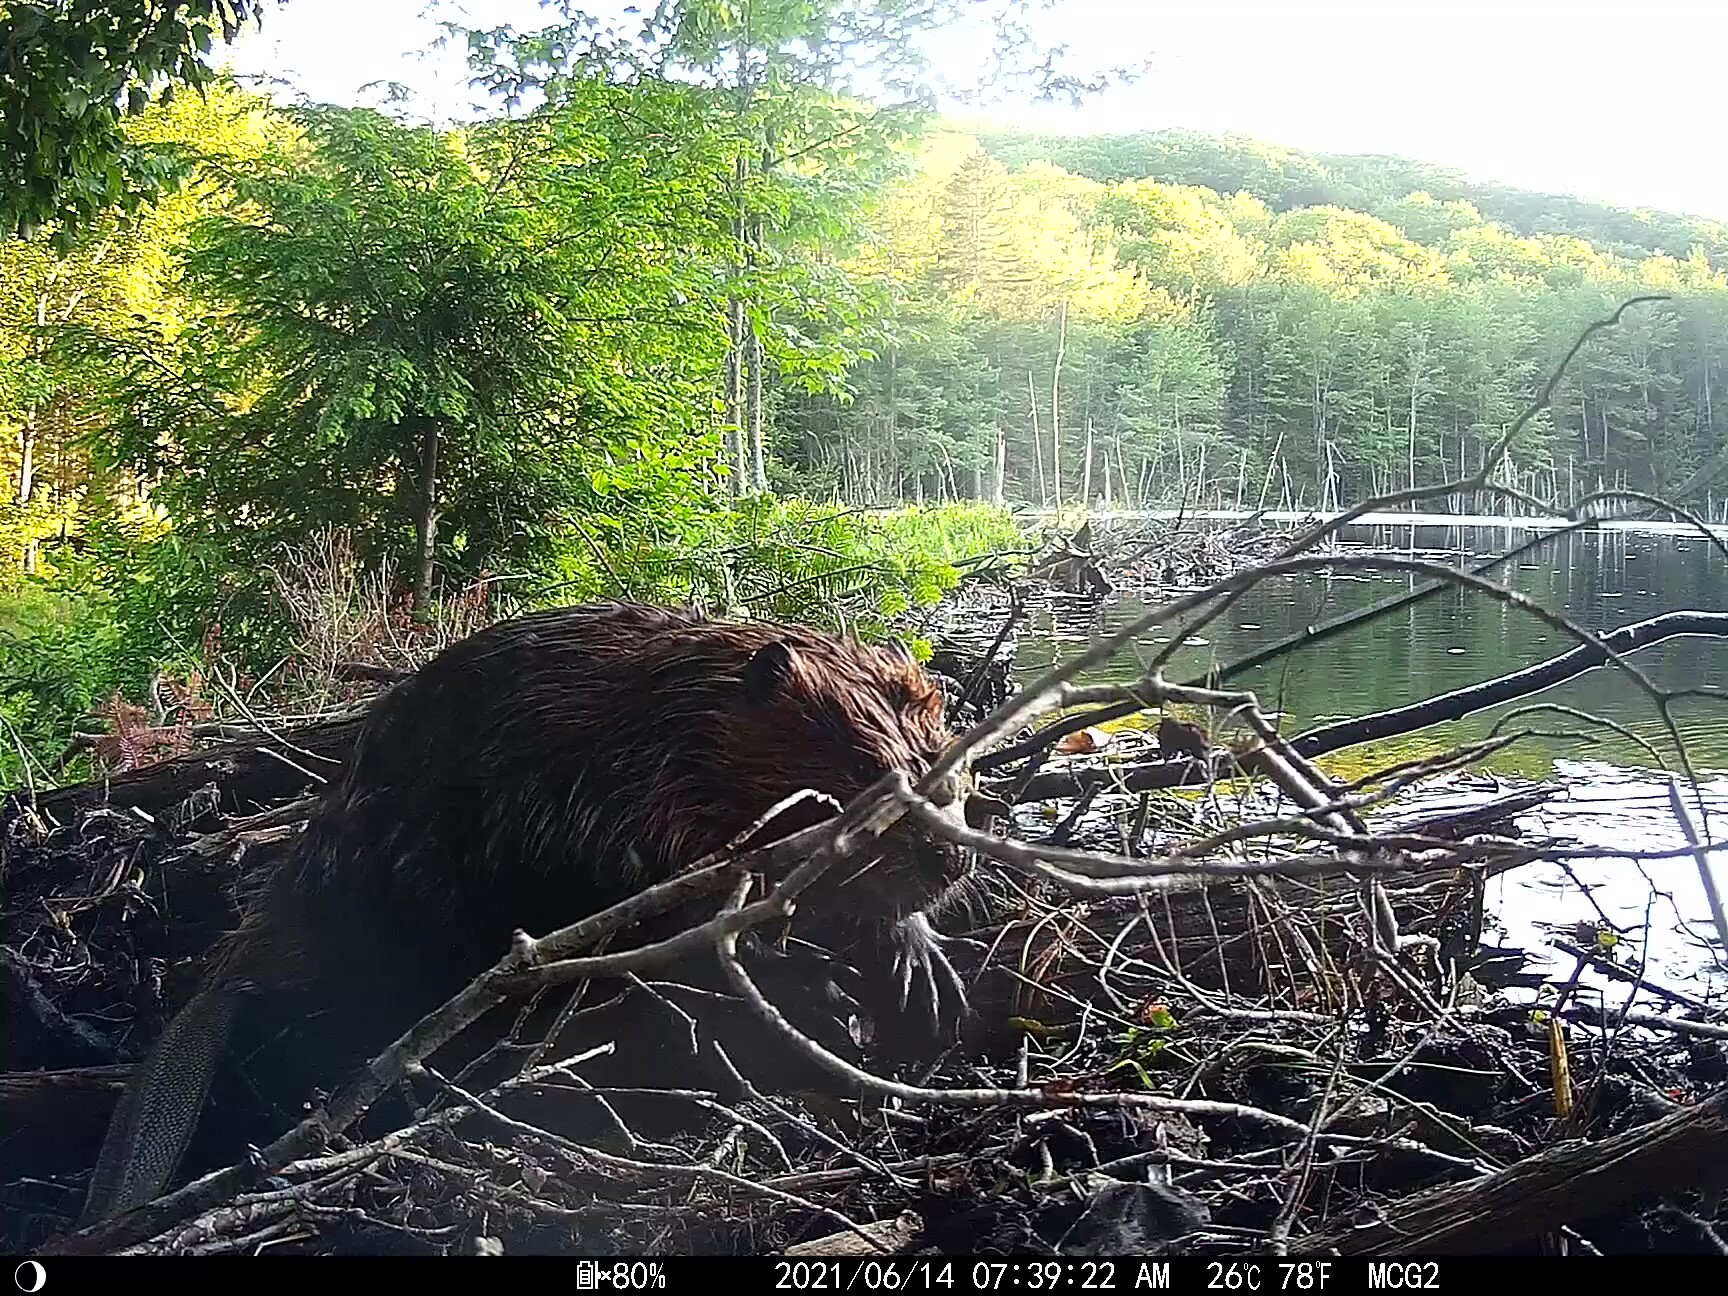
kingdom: Animalia
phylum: Chordata
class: Mammalia
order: Rodentia
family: Castoridae
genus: Castor
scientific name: Castor canadensis
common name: American beaver
